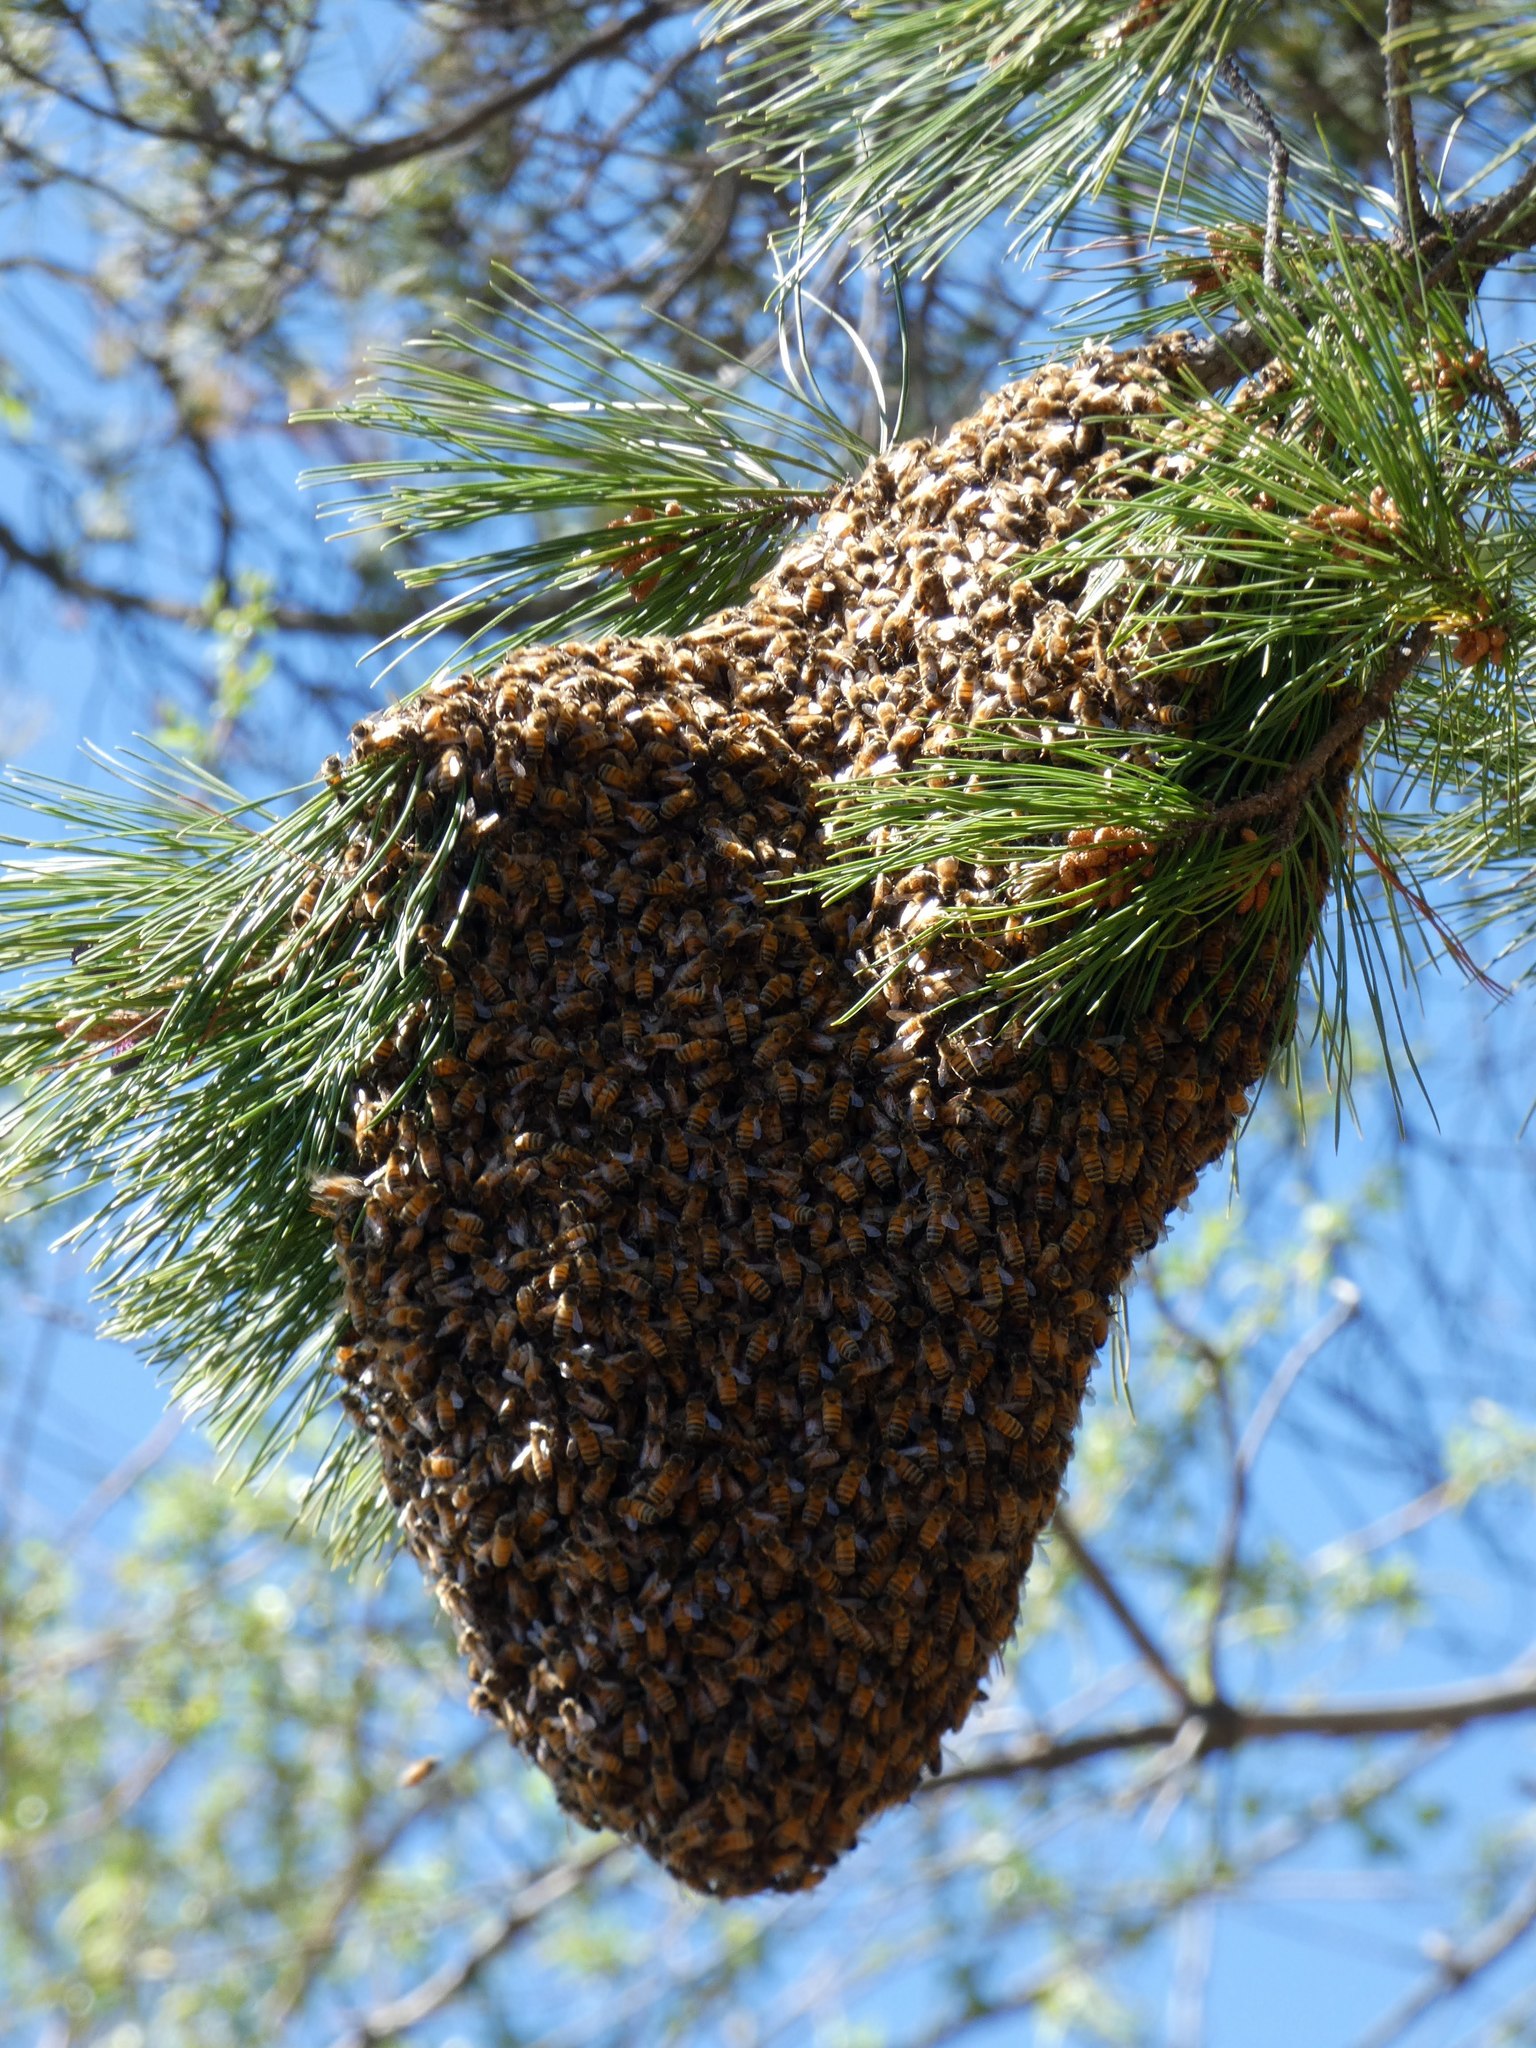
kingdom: Animalia
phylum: Arthropoda
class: Insecta
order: Hymenoptera
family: Apidae
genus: Apis
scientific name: Apis mellifera
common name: Honey bee
